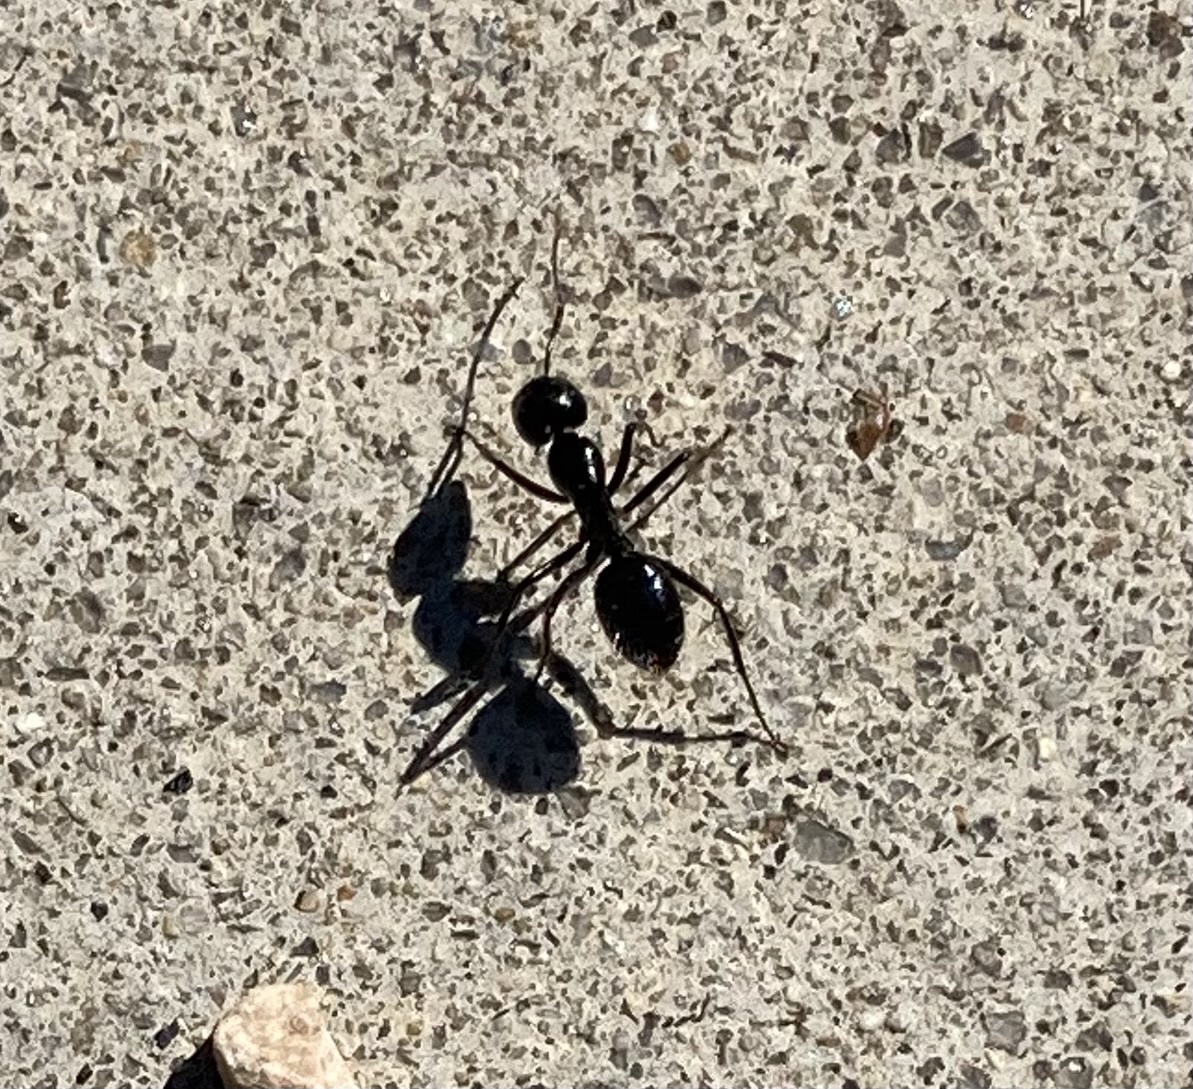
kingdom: Animalia
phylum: Arthropoda
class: Insecta
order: Hymenoptera
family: Formicidae
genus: Camponotus
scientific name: Camponotus
